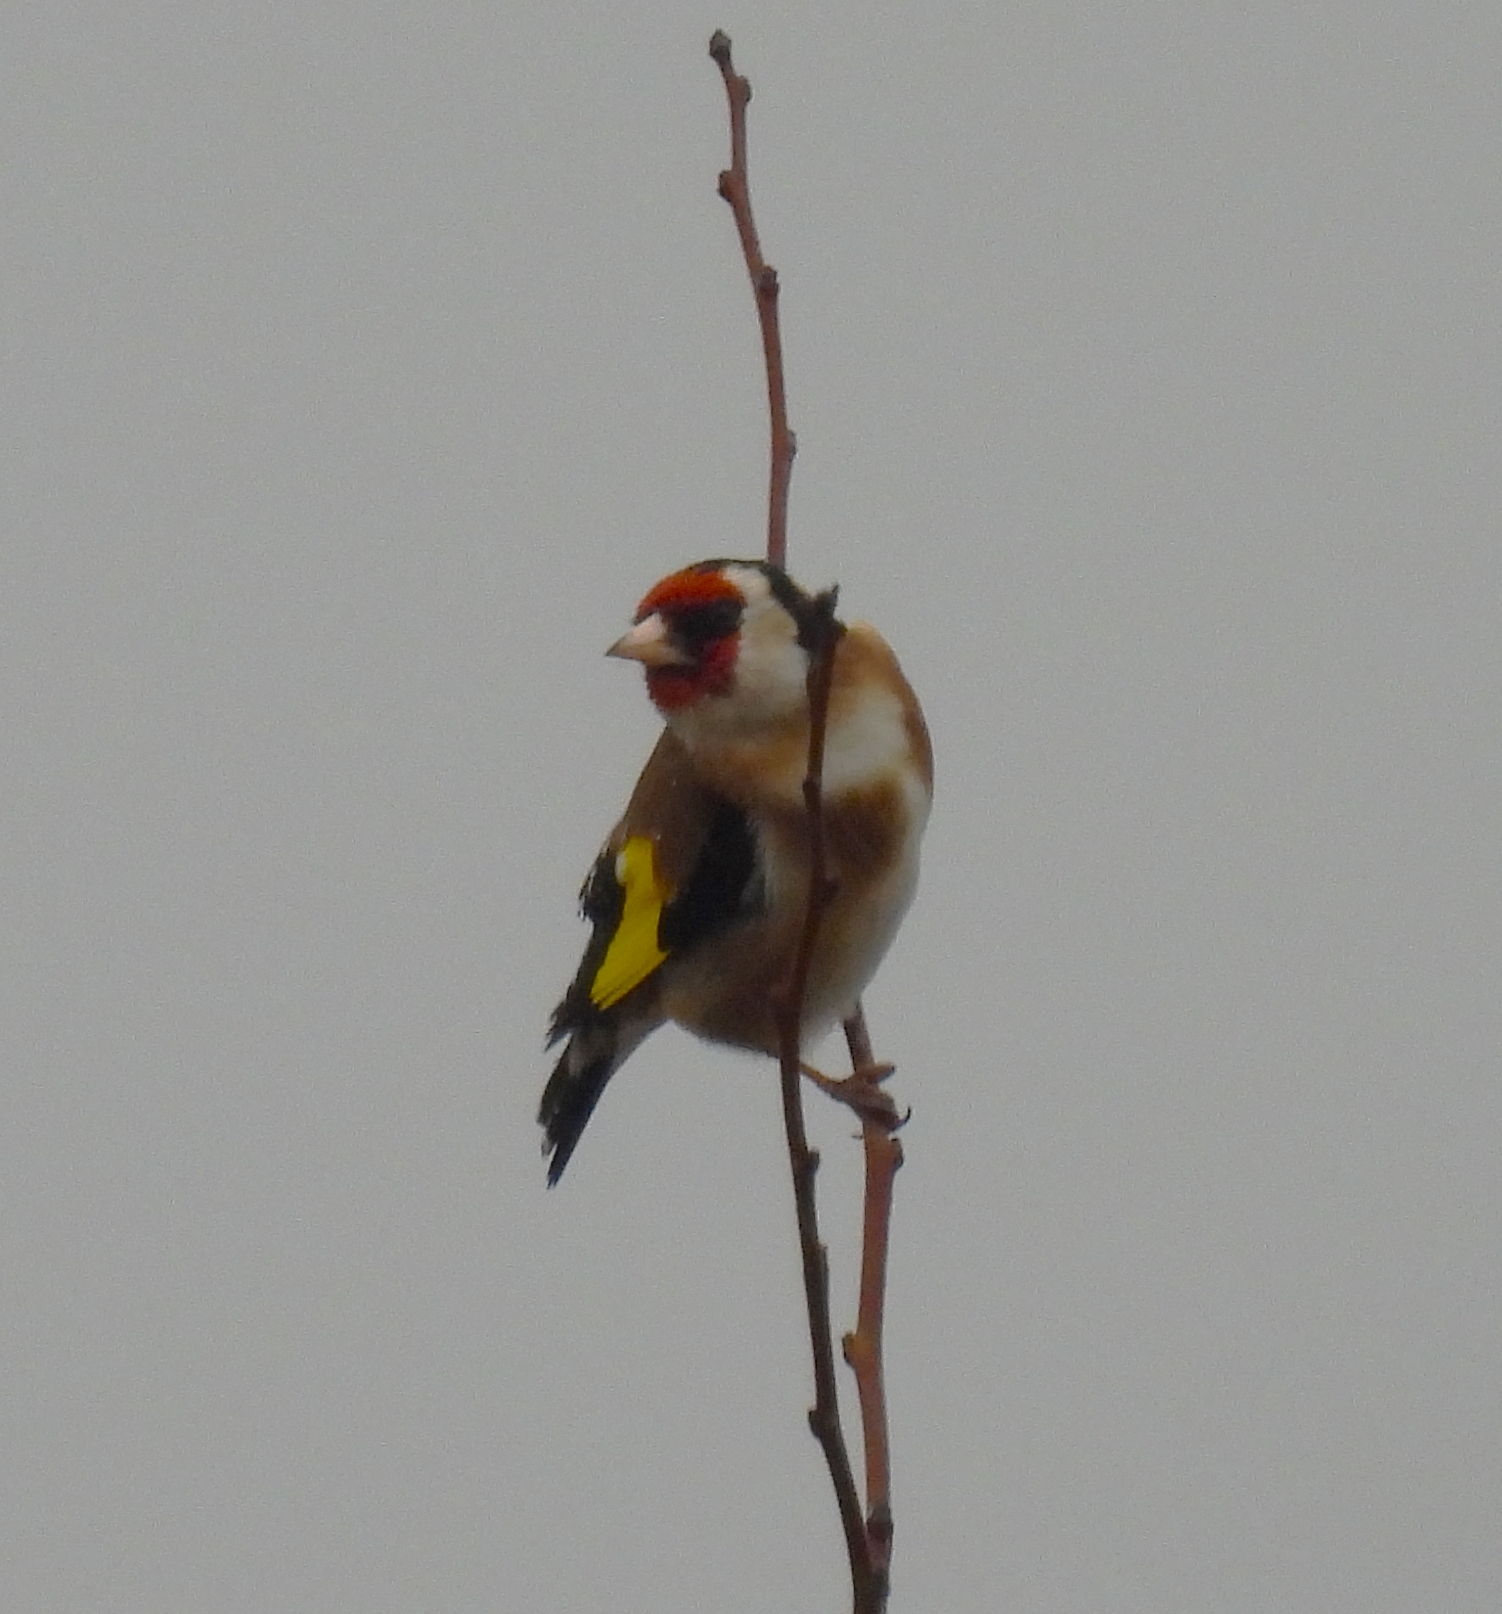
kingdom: Animalia
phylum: Chordata
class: Aves
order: Passeriformes
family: Fringillidae
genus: Carduelis
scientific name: Carduelis carduelis
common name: European goldfinch
